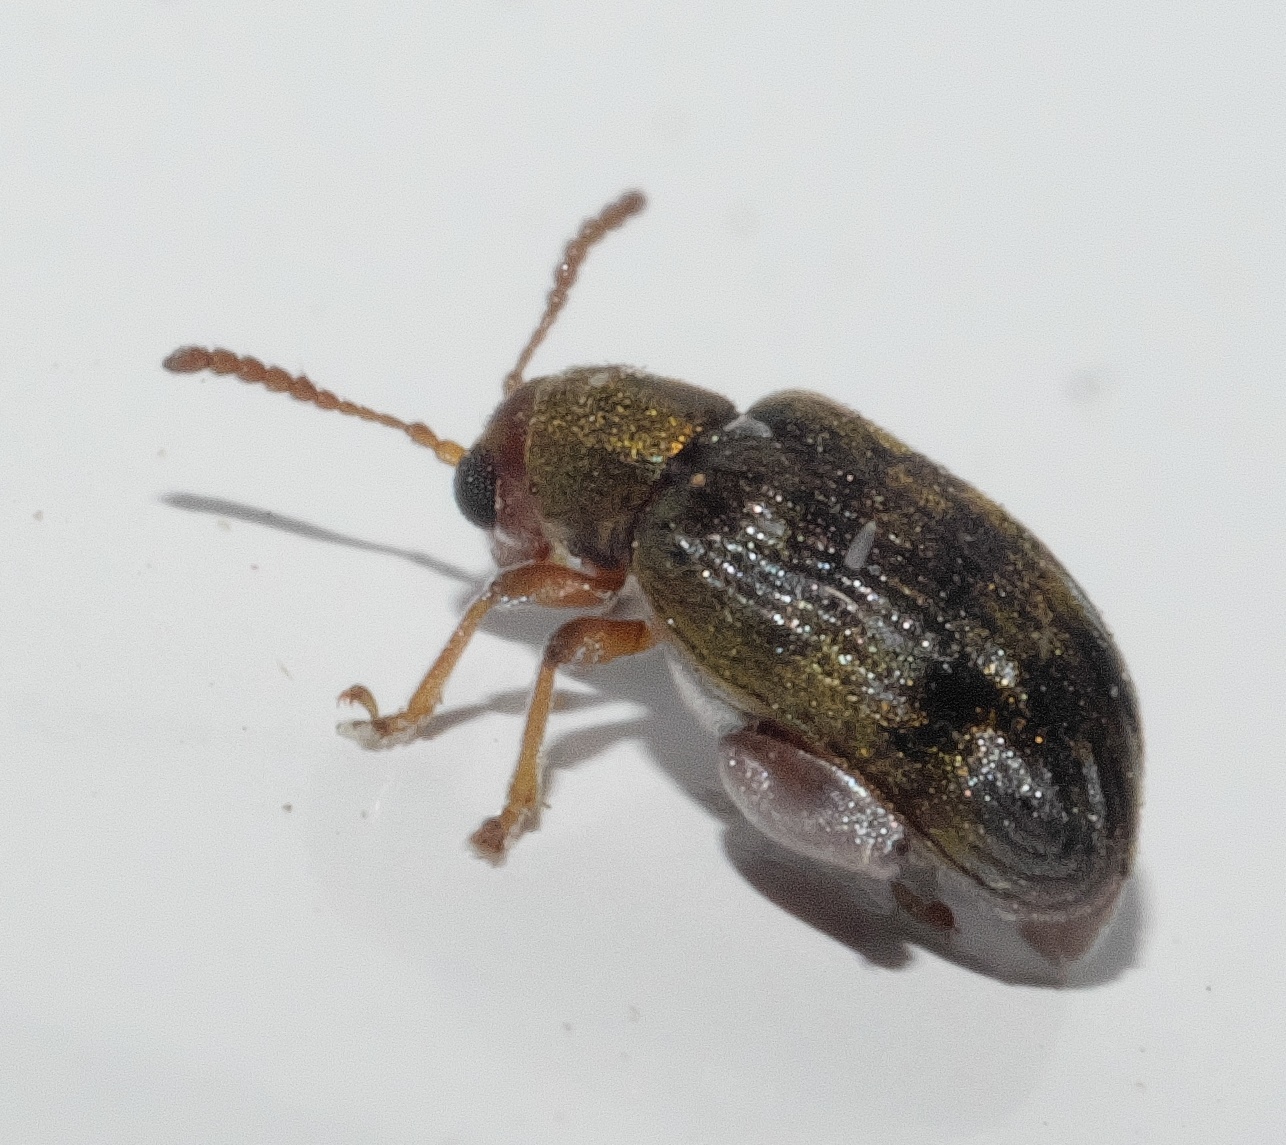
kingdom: Animalia
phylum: Arthropoda
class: Insecta
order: Coleoptera
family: Chrysomelidae
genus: Pseudolampis
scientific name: Pseudolampis guttata
